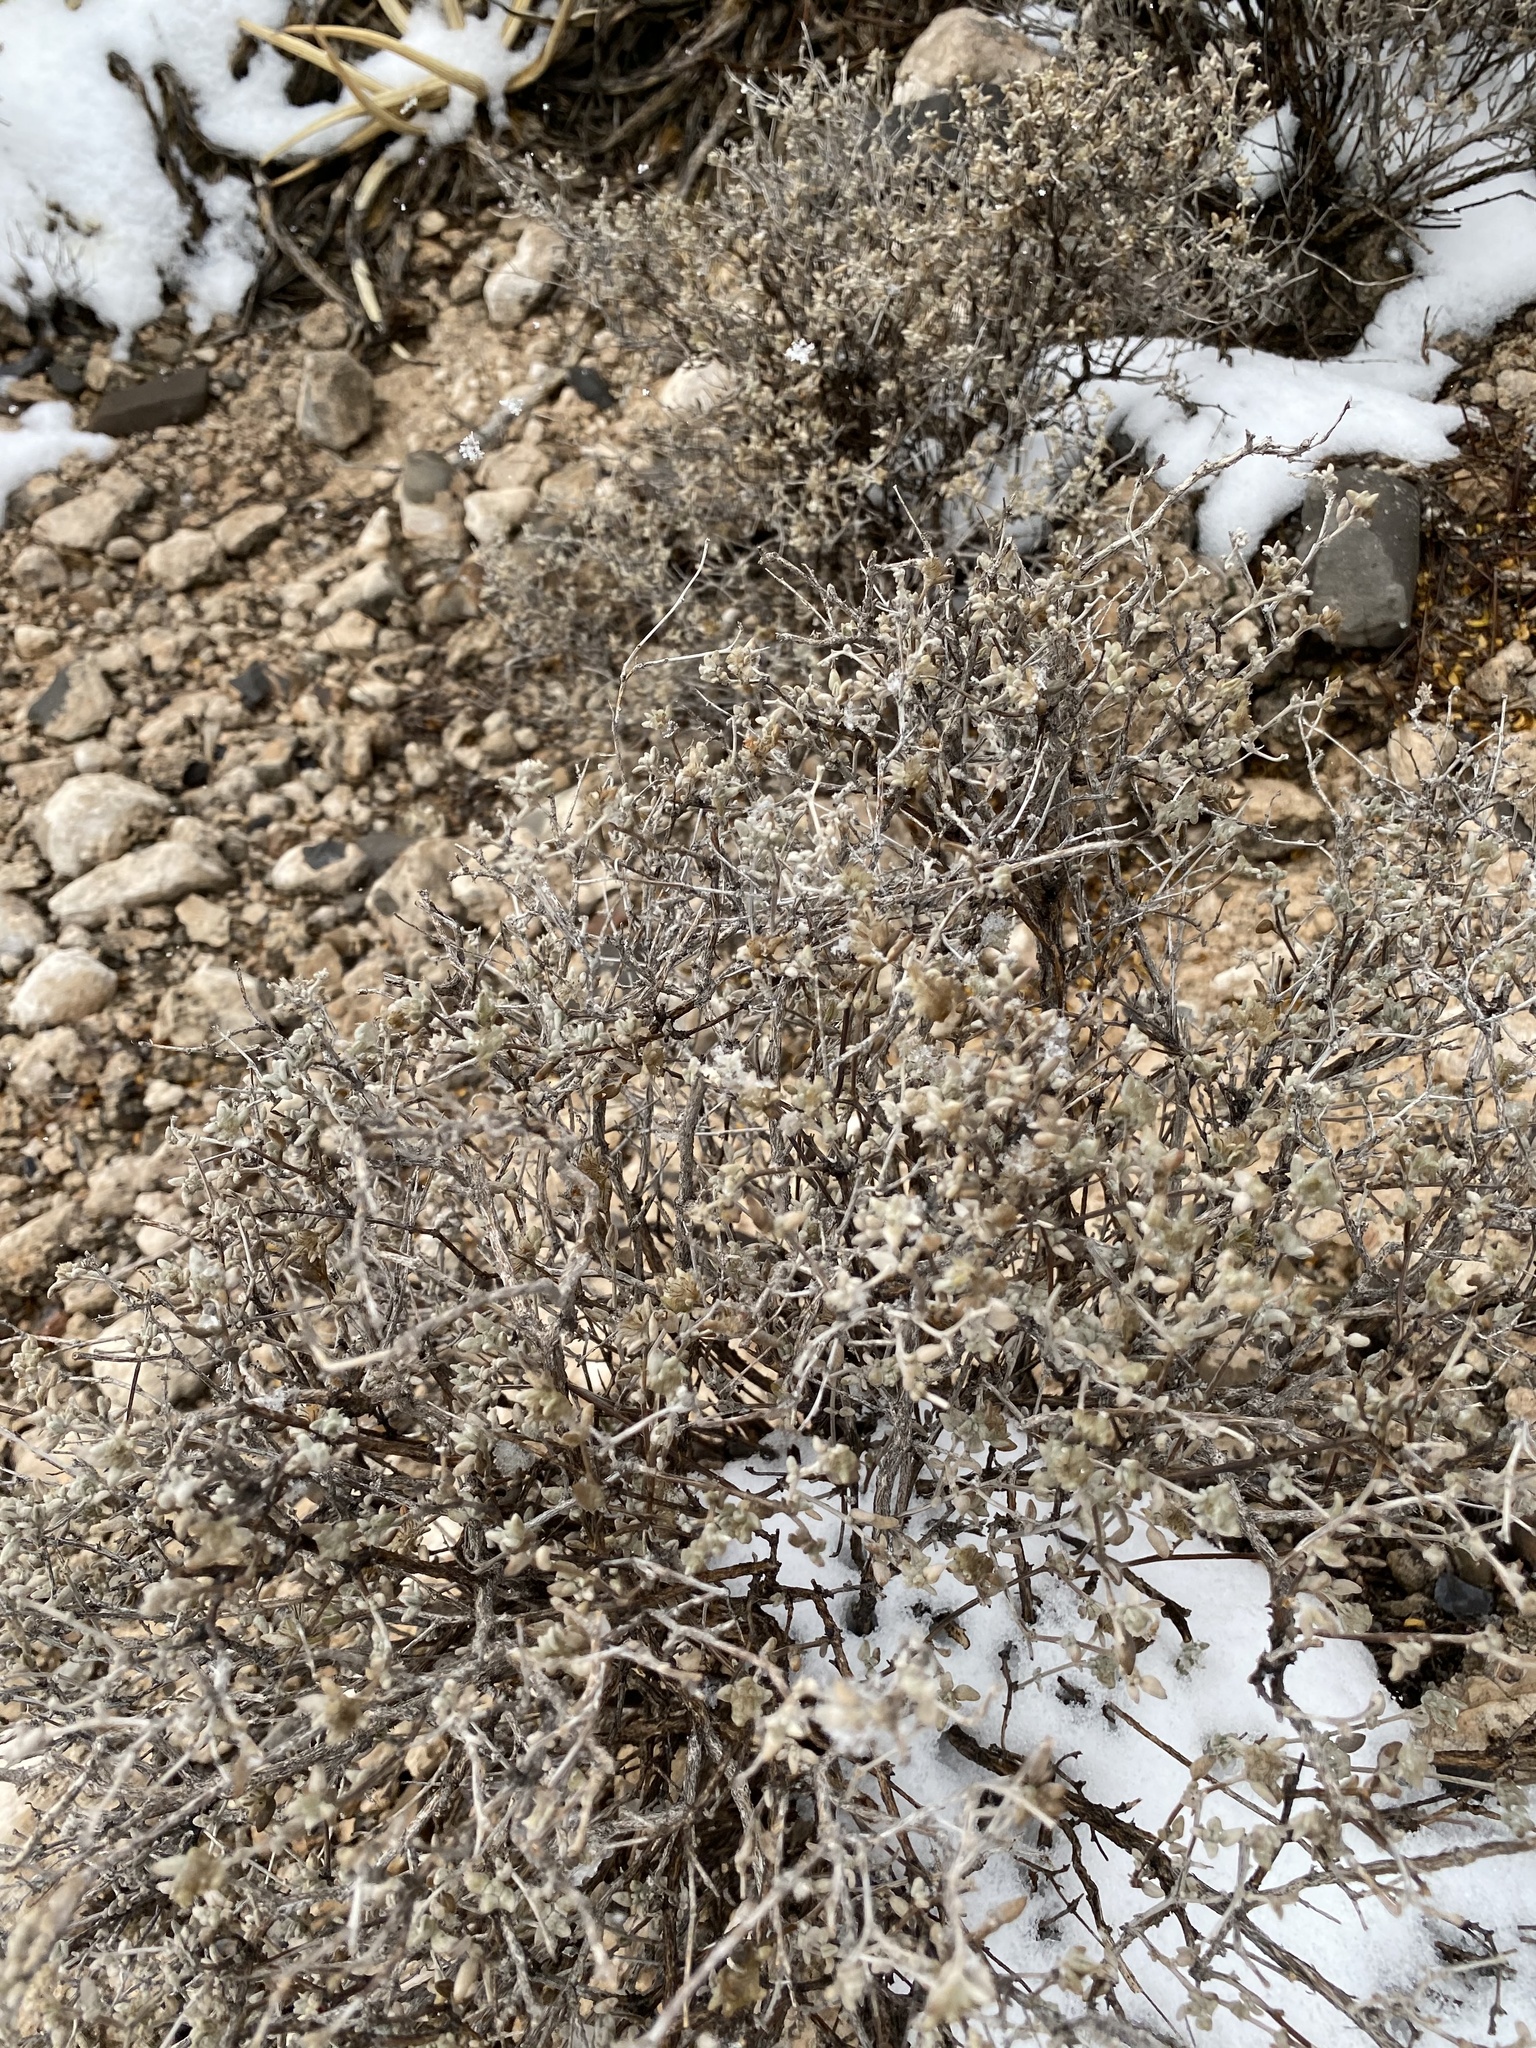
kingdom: Plantae
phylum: Tracheophyta
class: Magnoliopsida
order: Boraginales
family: Ehretiaceae
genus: Tiquilia
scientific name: Tiquilia canescens
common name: Hairy tiquilia
